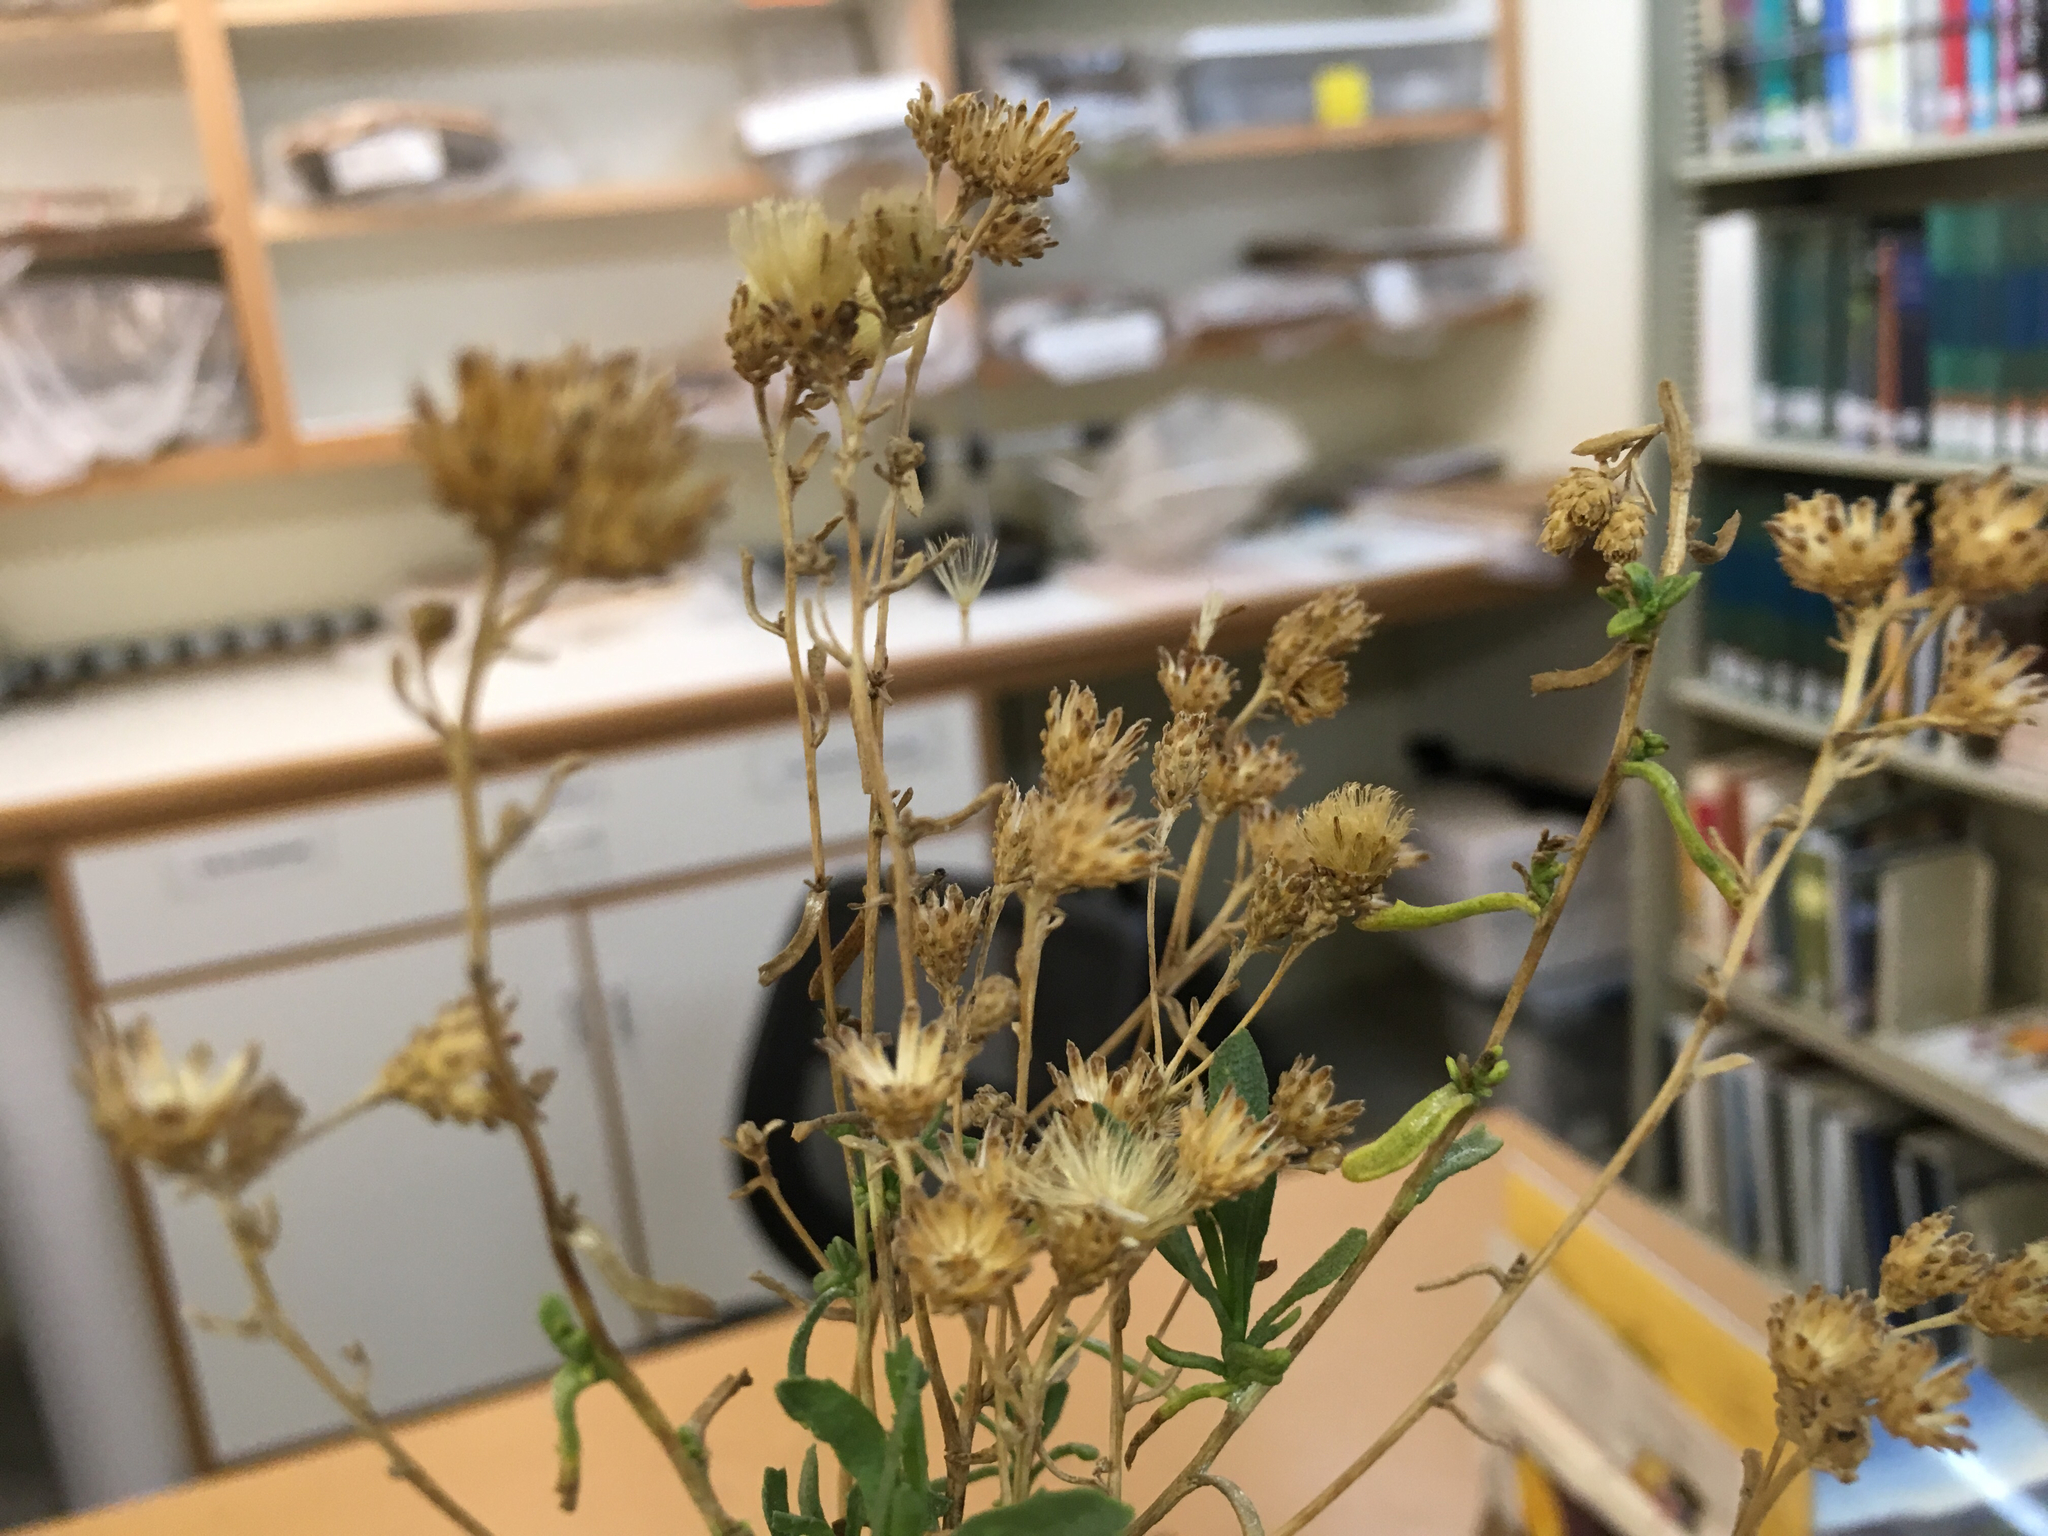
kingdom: Plantae
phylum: Tracheophyta
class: Magnoliopsida
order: Asterales
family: Asteraceae
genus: Isocoma
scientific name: Isocoma acradenia
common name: Alkali jimmyweed
